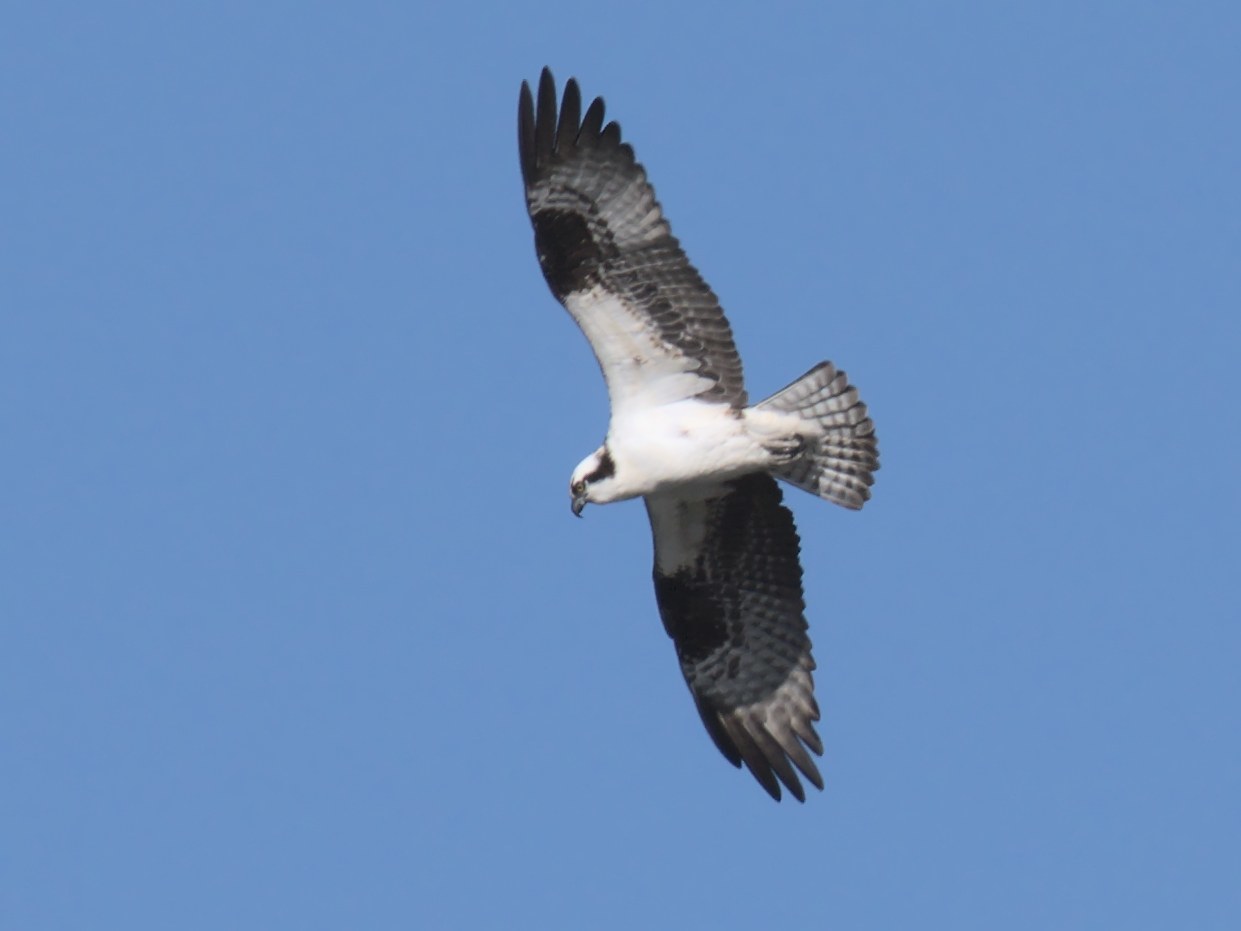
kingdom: Animalia
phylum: Chordata
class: Aves
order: Accipitriformes
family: Pandionidae
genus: Pandion
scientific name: Pandion haliaetus
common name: Osprey
